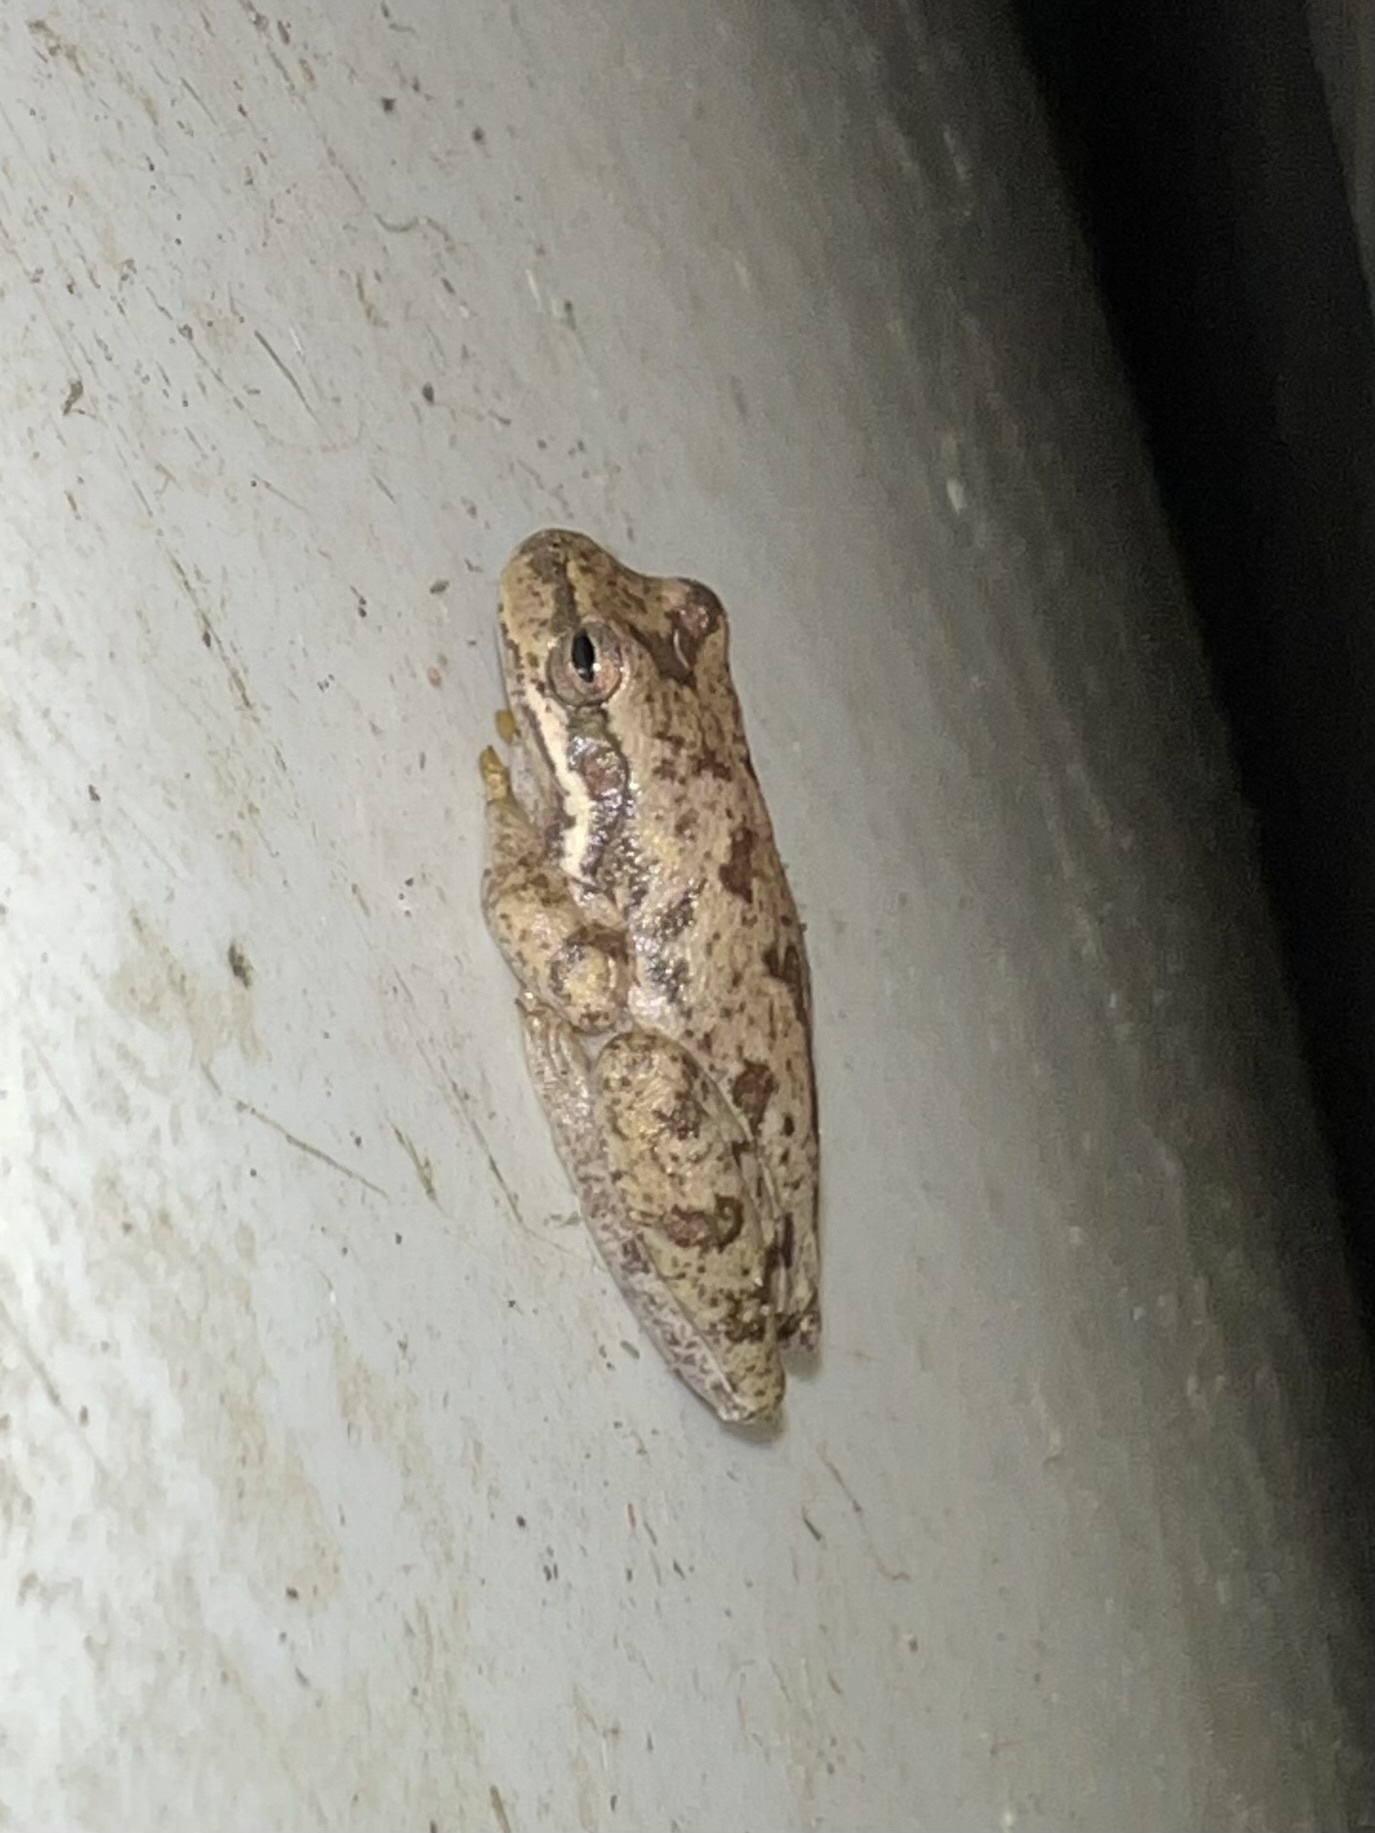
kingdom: Animalia
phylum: Chordata
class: Amphibia
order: Anura
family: Hylidae
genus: Dryophytes
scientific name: Dryophytes squirellus
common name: Squirrel treefrog
